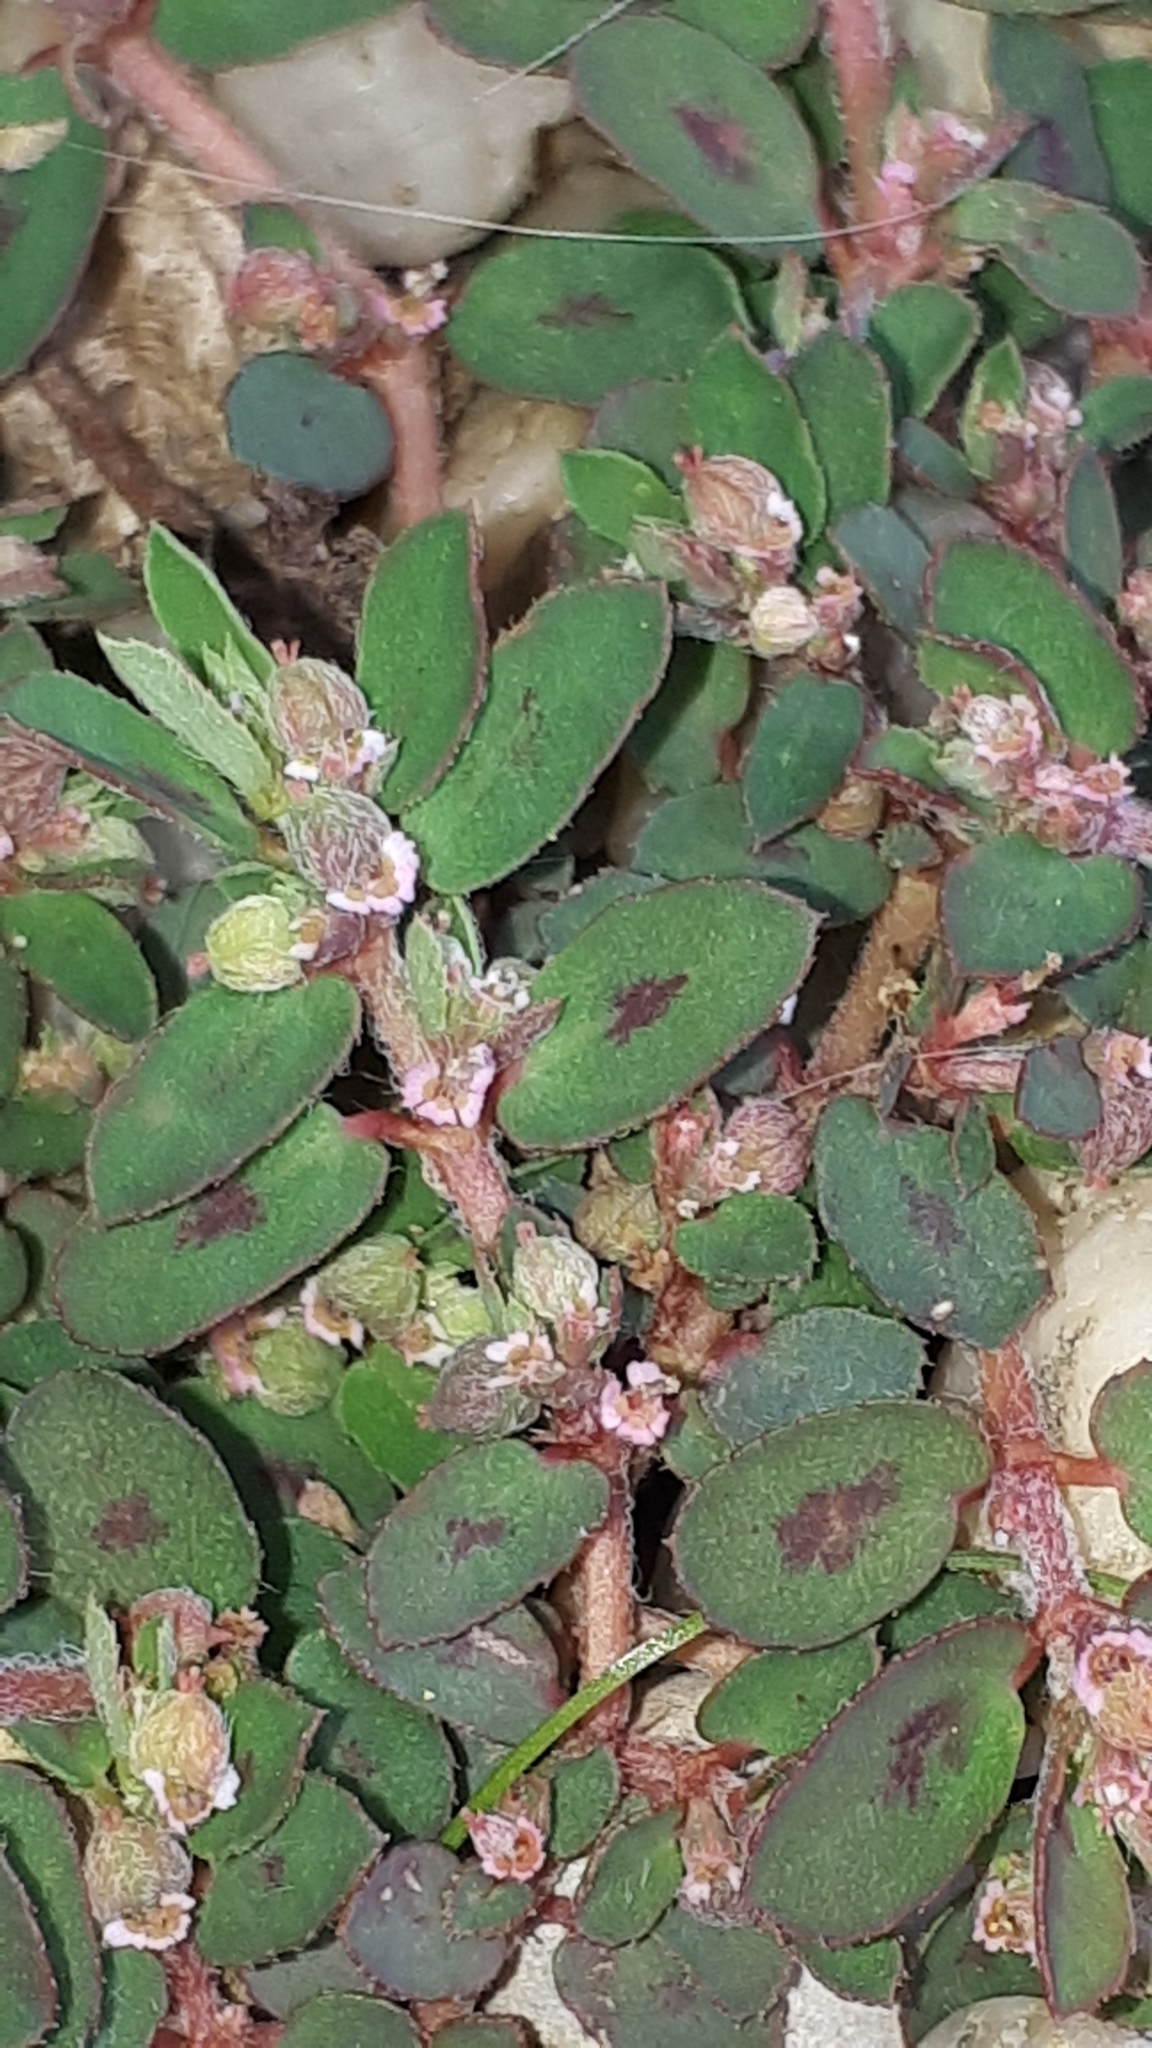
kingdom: Plantae
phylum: Tracheophyta
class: Magnoliopsida
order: Malpighiales
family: Euphorbiaceae
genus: Euphorbia
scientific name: Euphorbia maculata
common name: Spotted spurge
